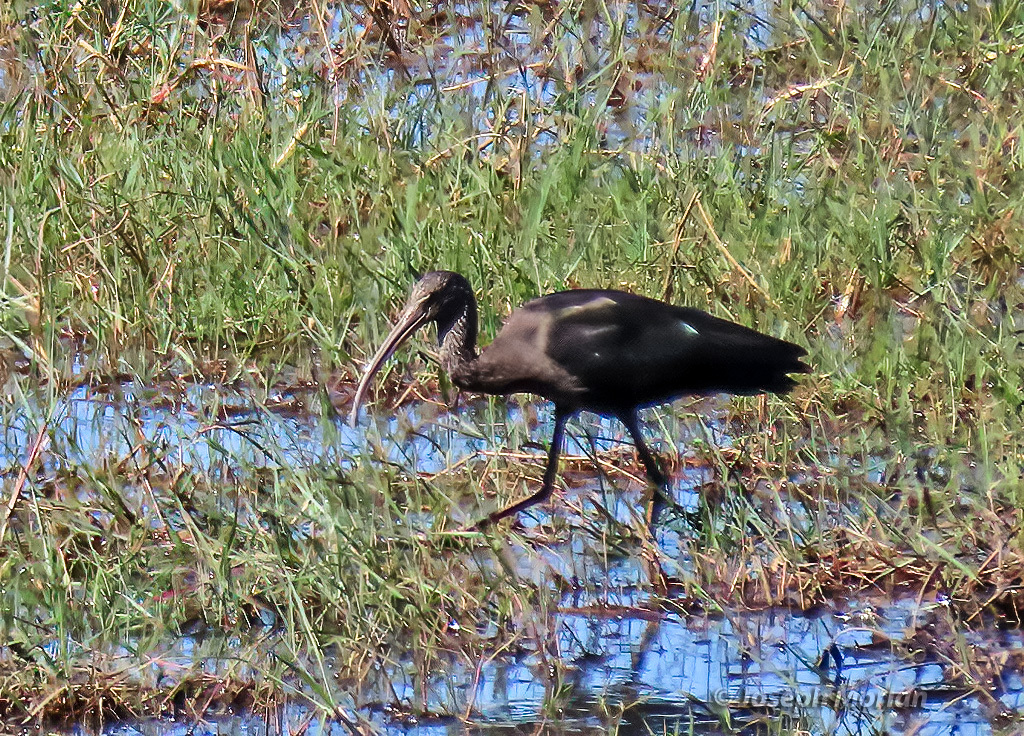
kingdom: Animalia
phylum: Chordata
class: Aves
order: Pelecaniformes
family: Threskiornithidae
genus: Plegadis
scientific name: Plegadis falcinellus
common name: Glossy ibis
